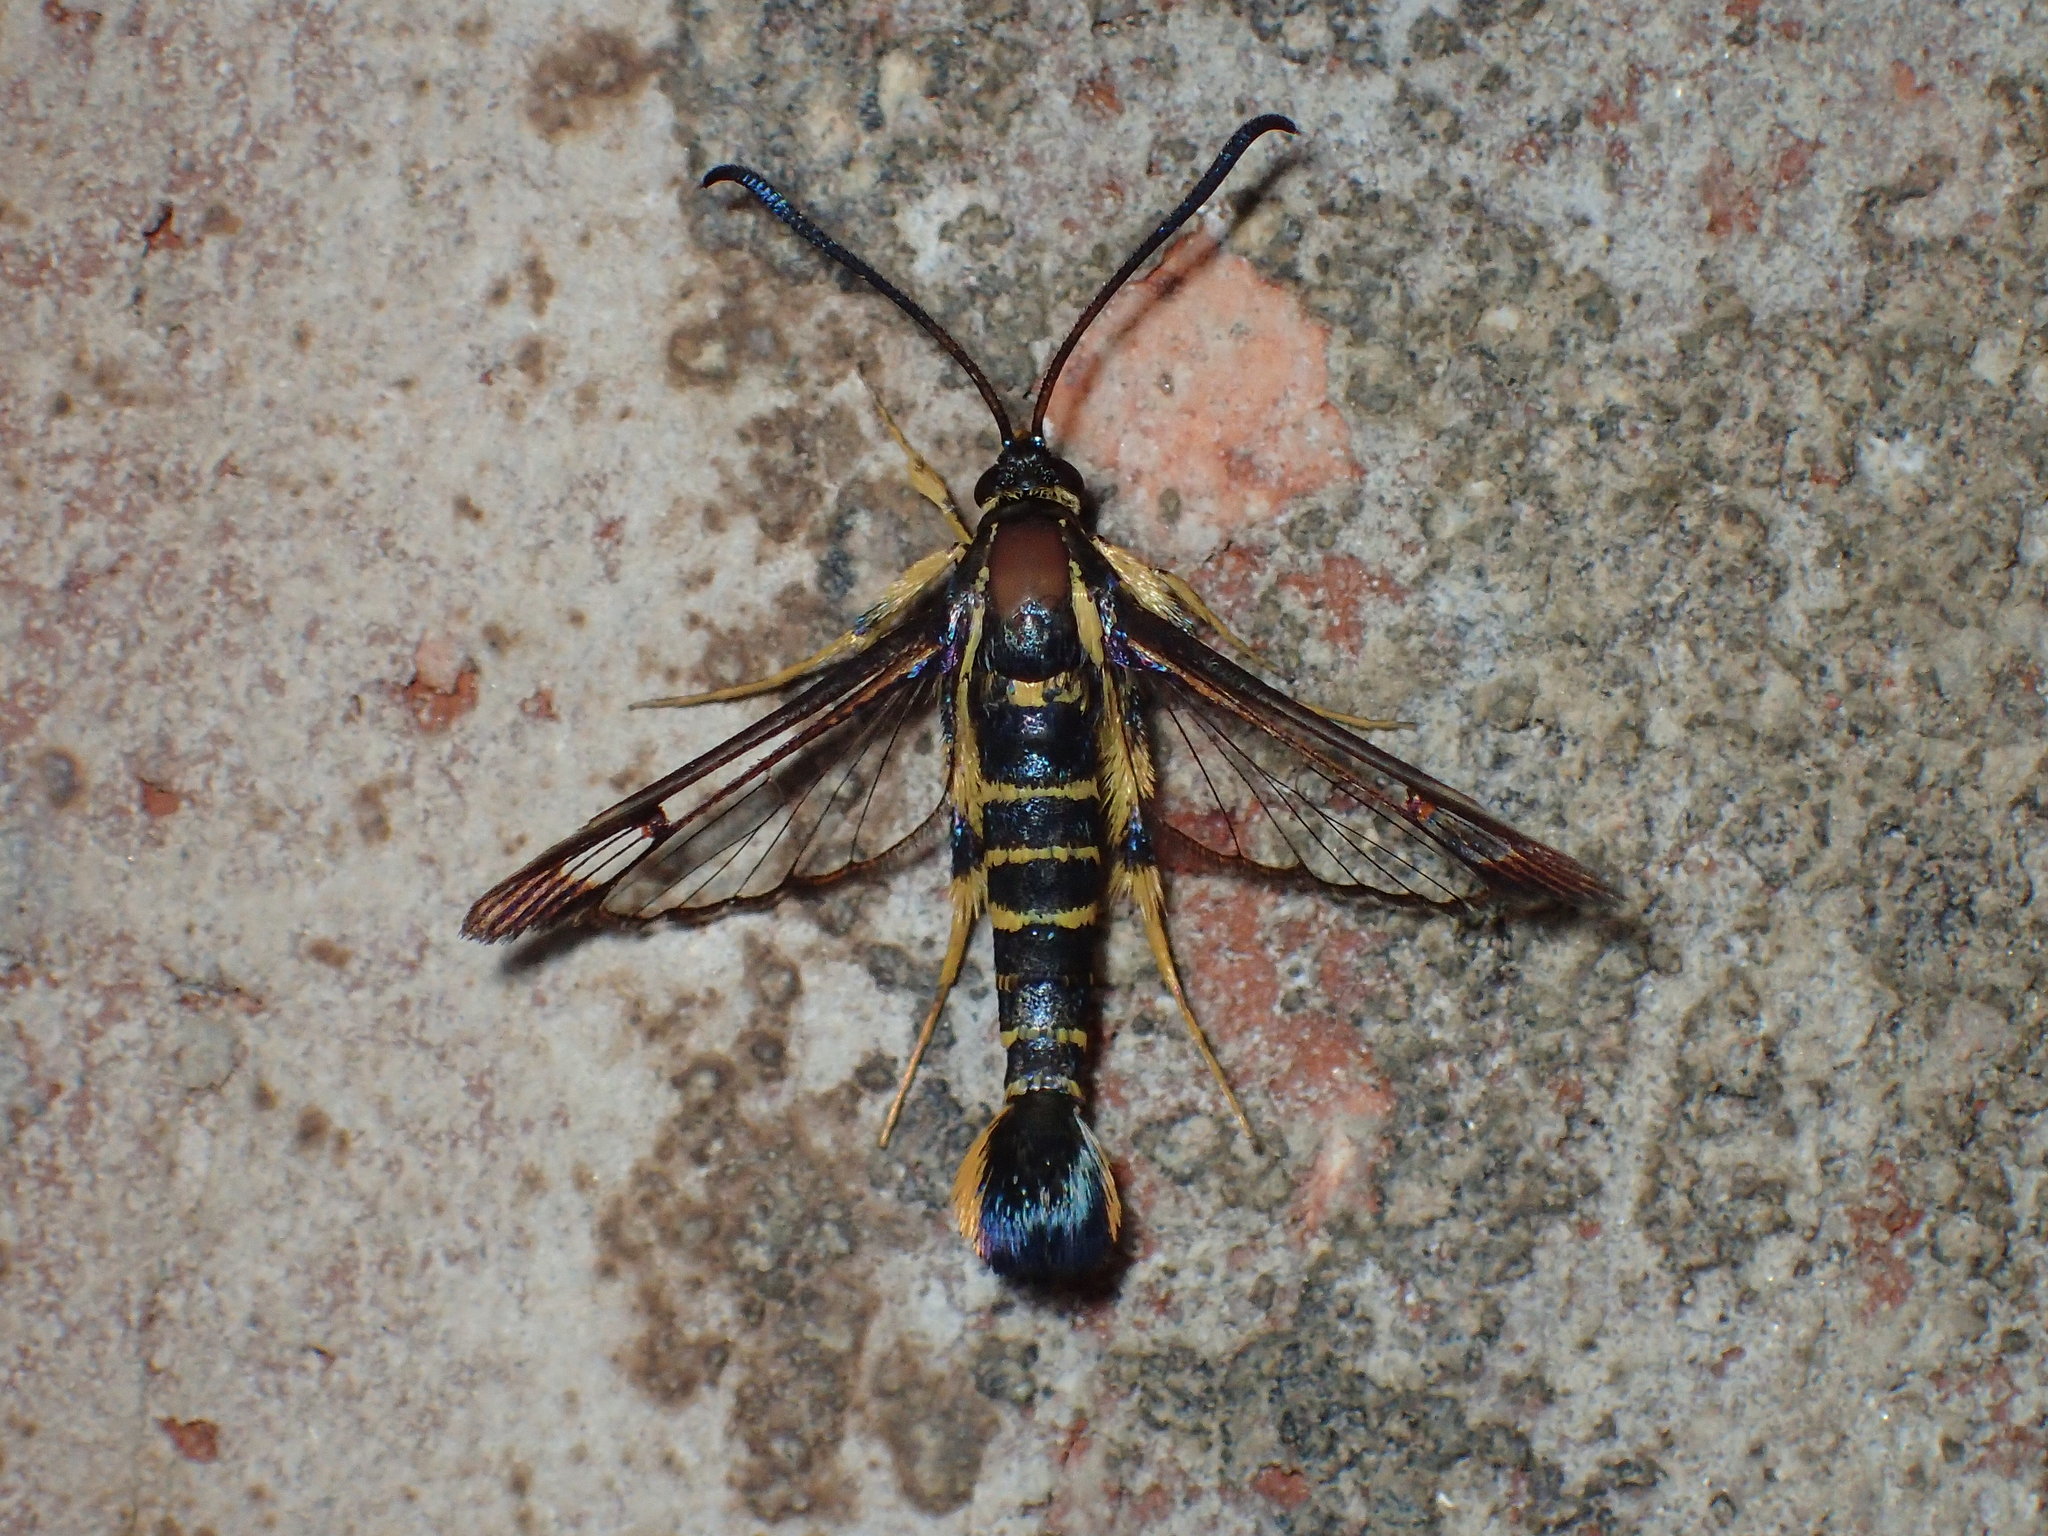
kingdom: Animalia
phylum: Arthropoda
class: Insecta
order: Lepidoptera
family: Sesiidae
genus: Synanthedon
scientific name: Synanthedon arkansasensis
